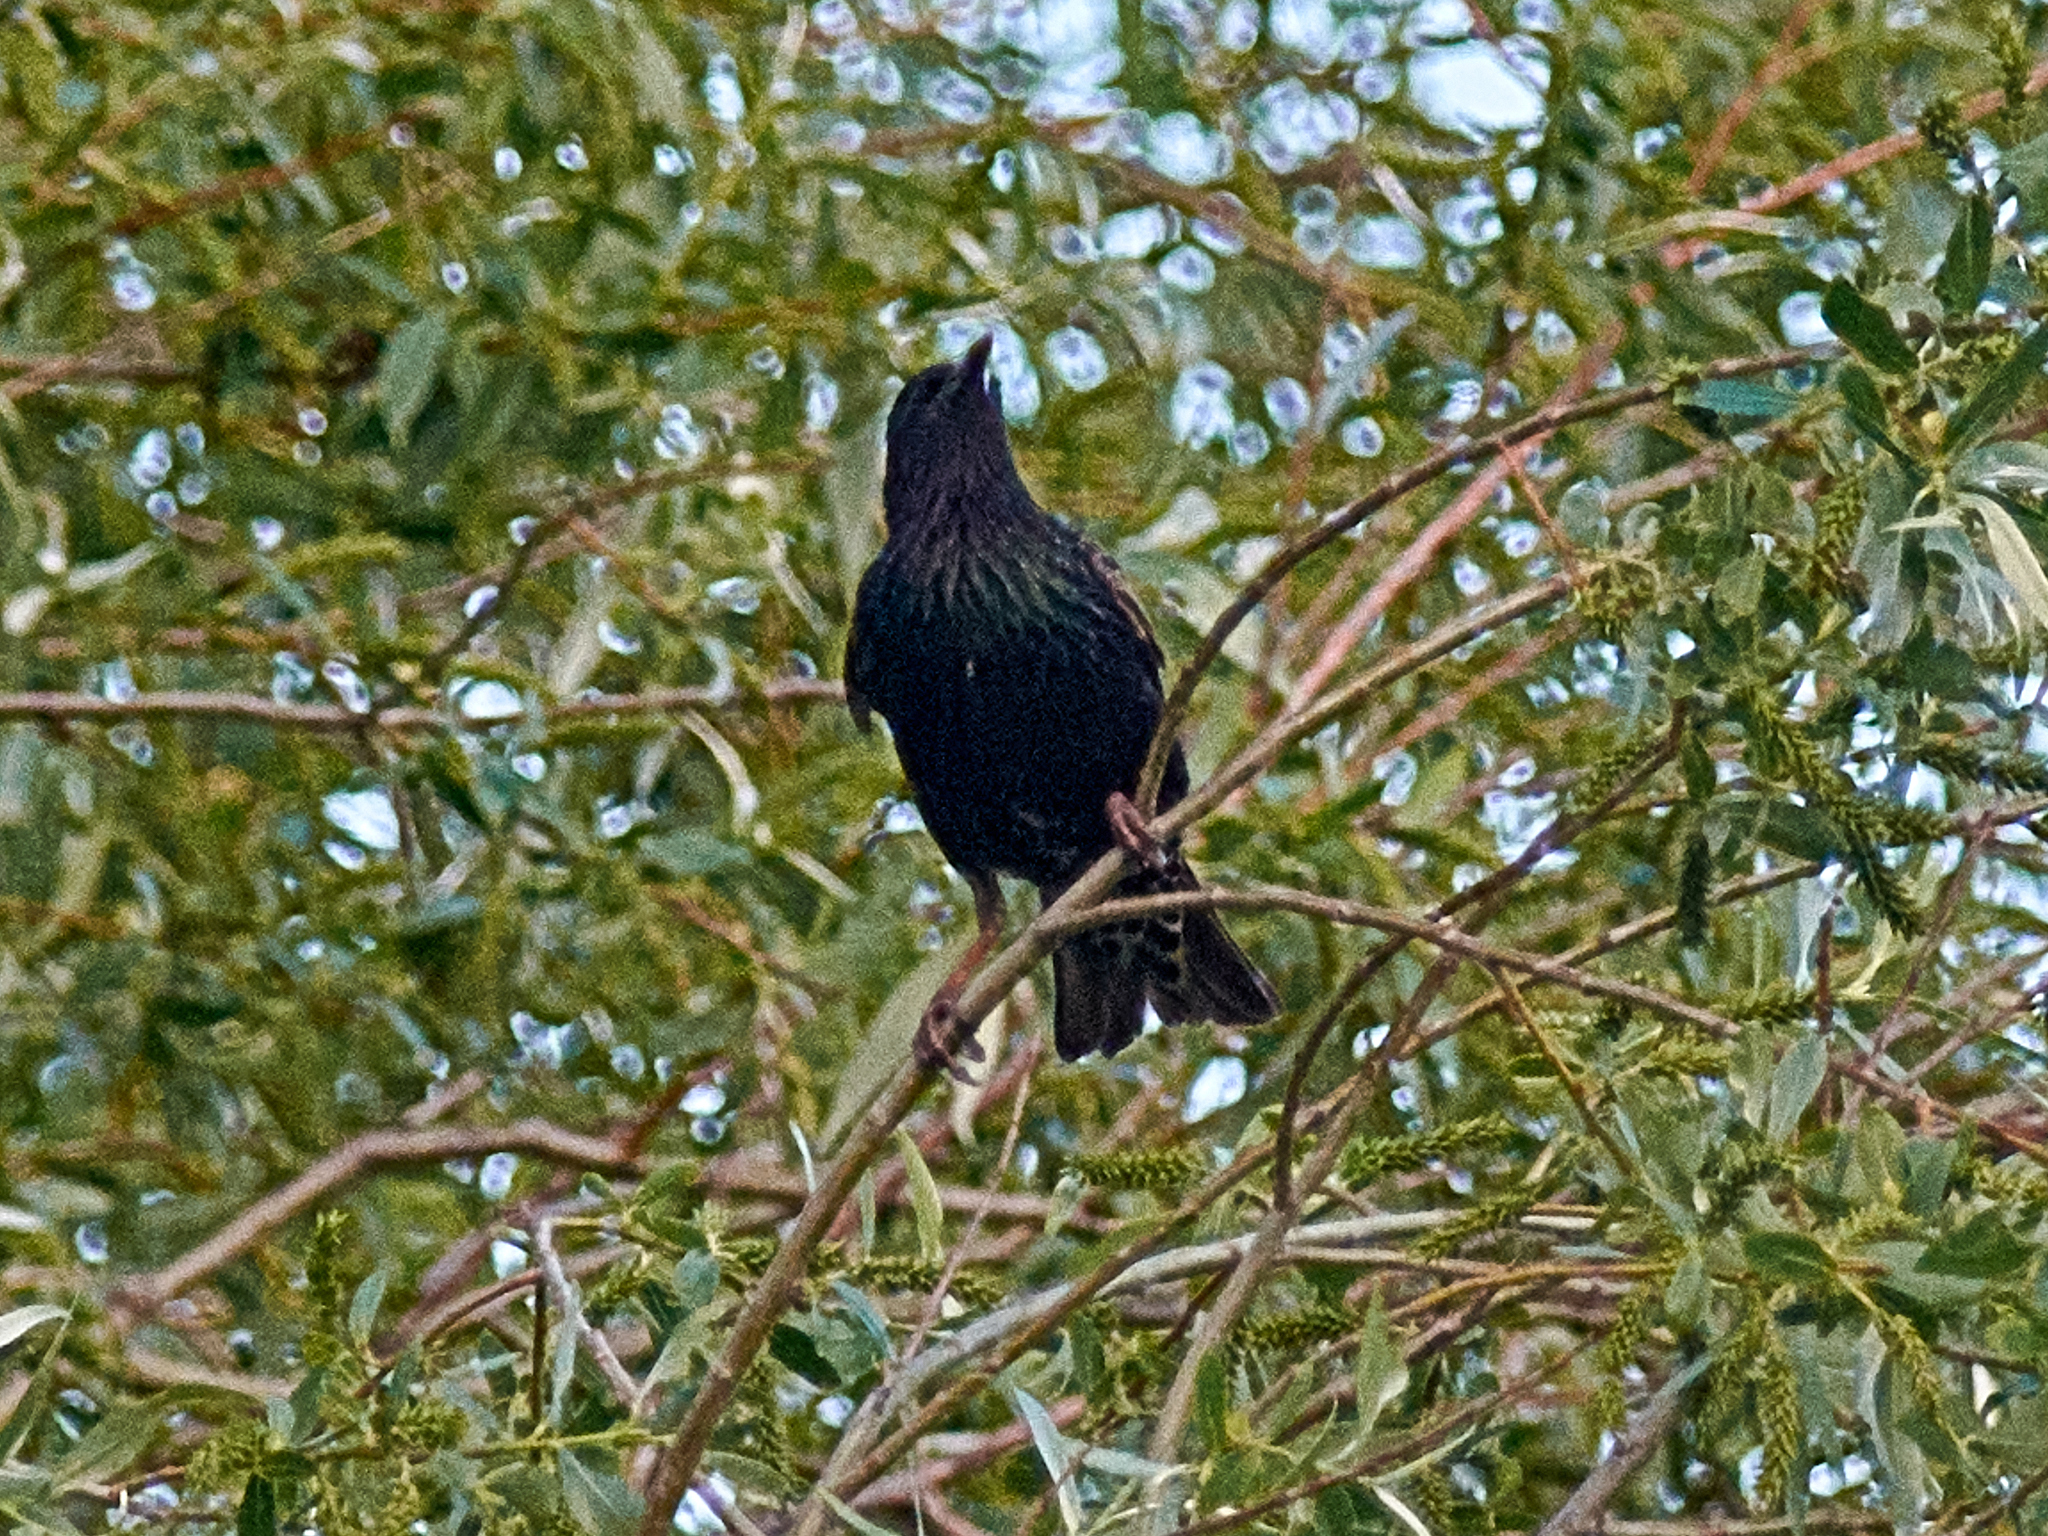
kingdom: Animalia
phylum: Chordata
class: Aves
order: Passeriformes
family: Sturnidae
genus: Sturnus
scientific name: Sturnus vulgaris
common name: Common starling
